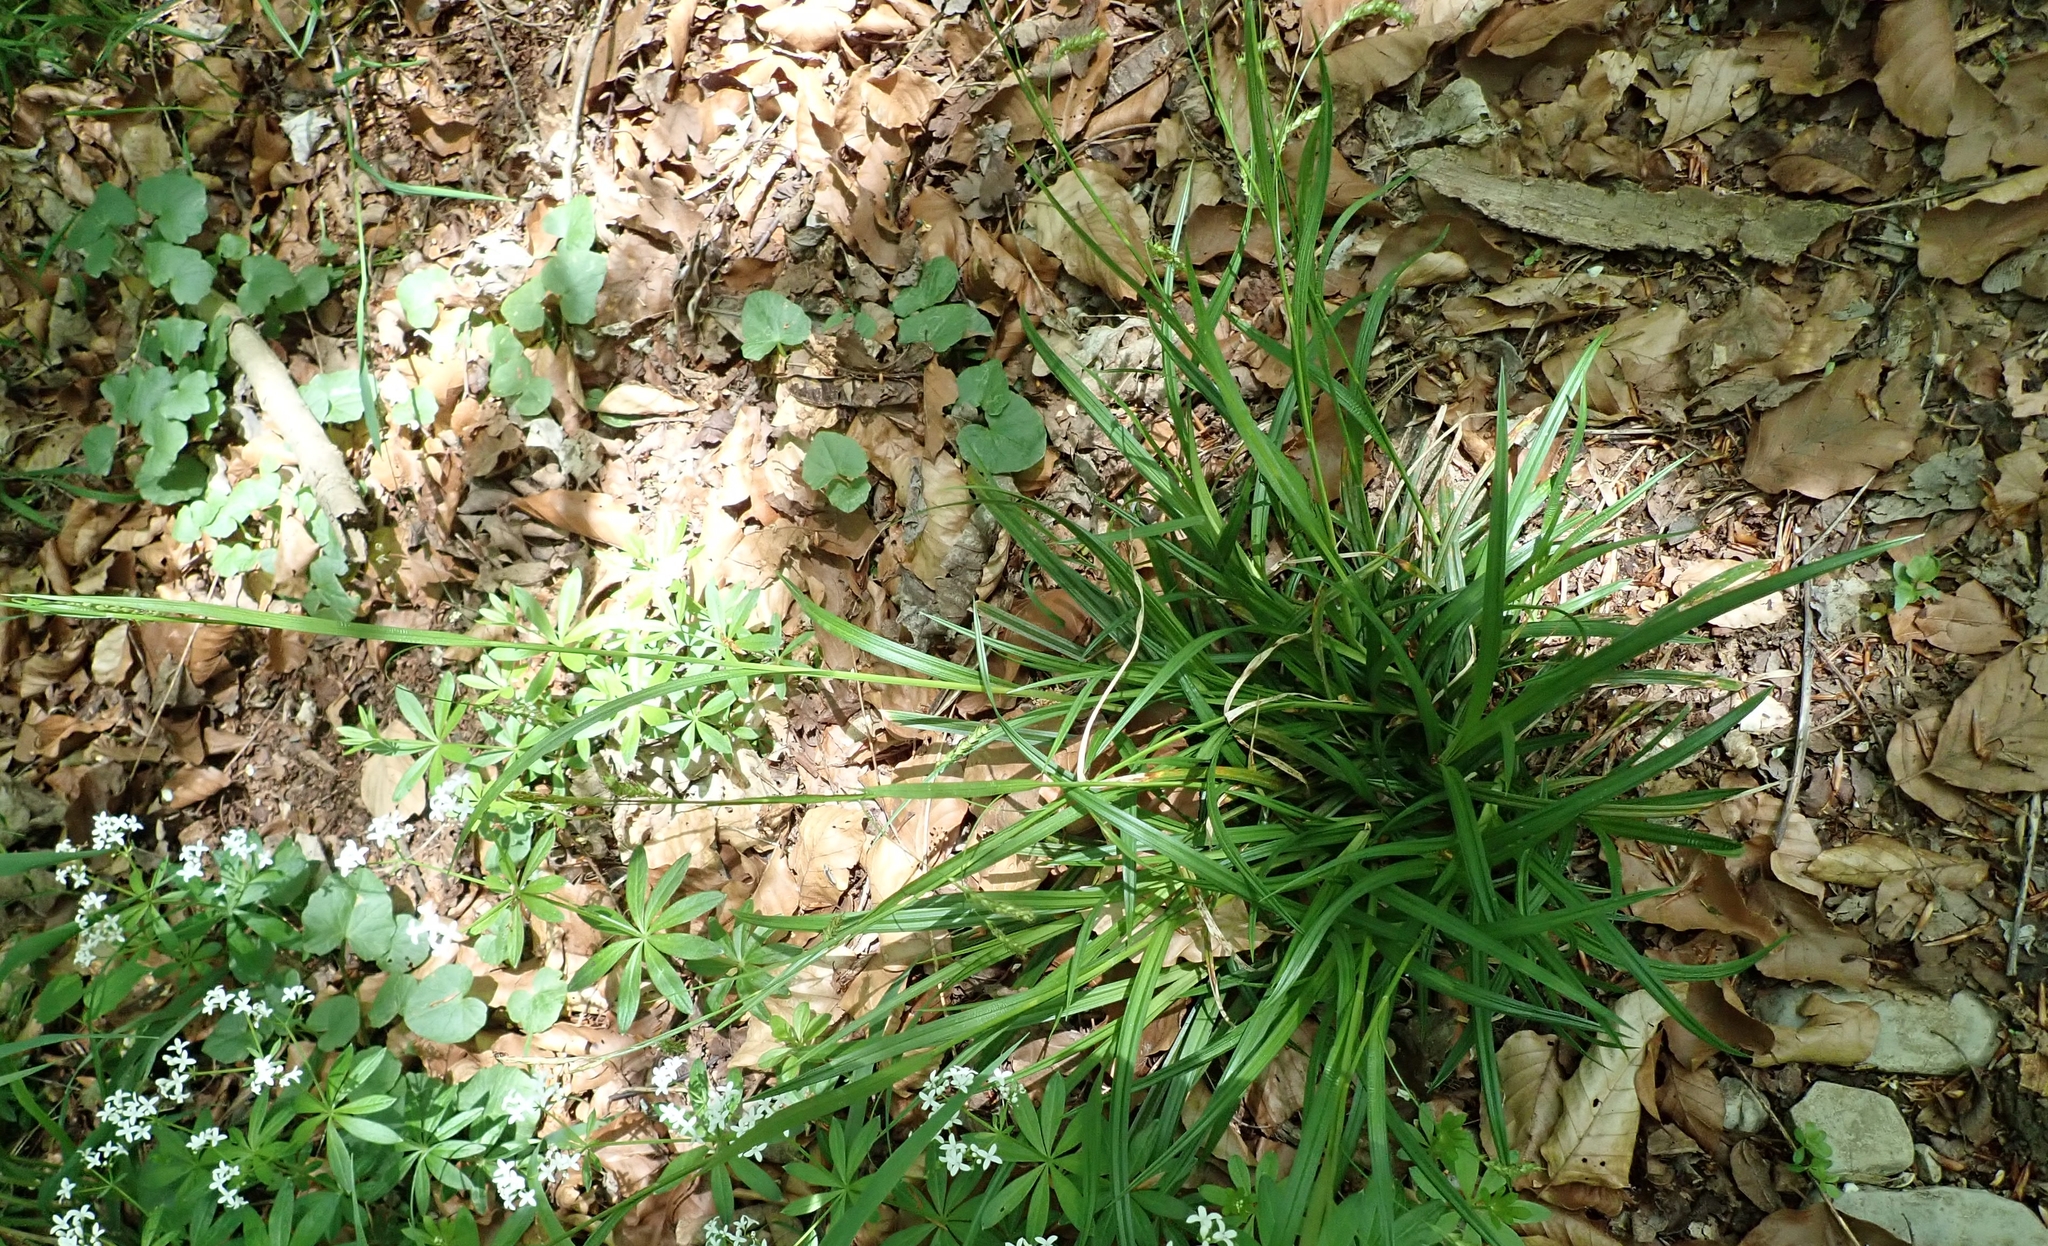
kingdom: Plantae
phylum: Tracheophyta
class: Liliopsida
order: Poales
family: Cyperaceae
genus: Carex
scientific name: Carex sylvatica
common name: Wood-sedge
